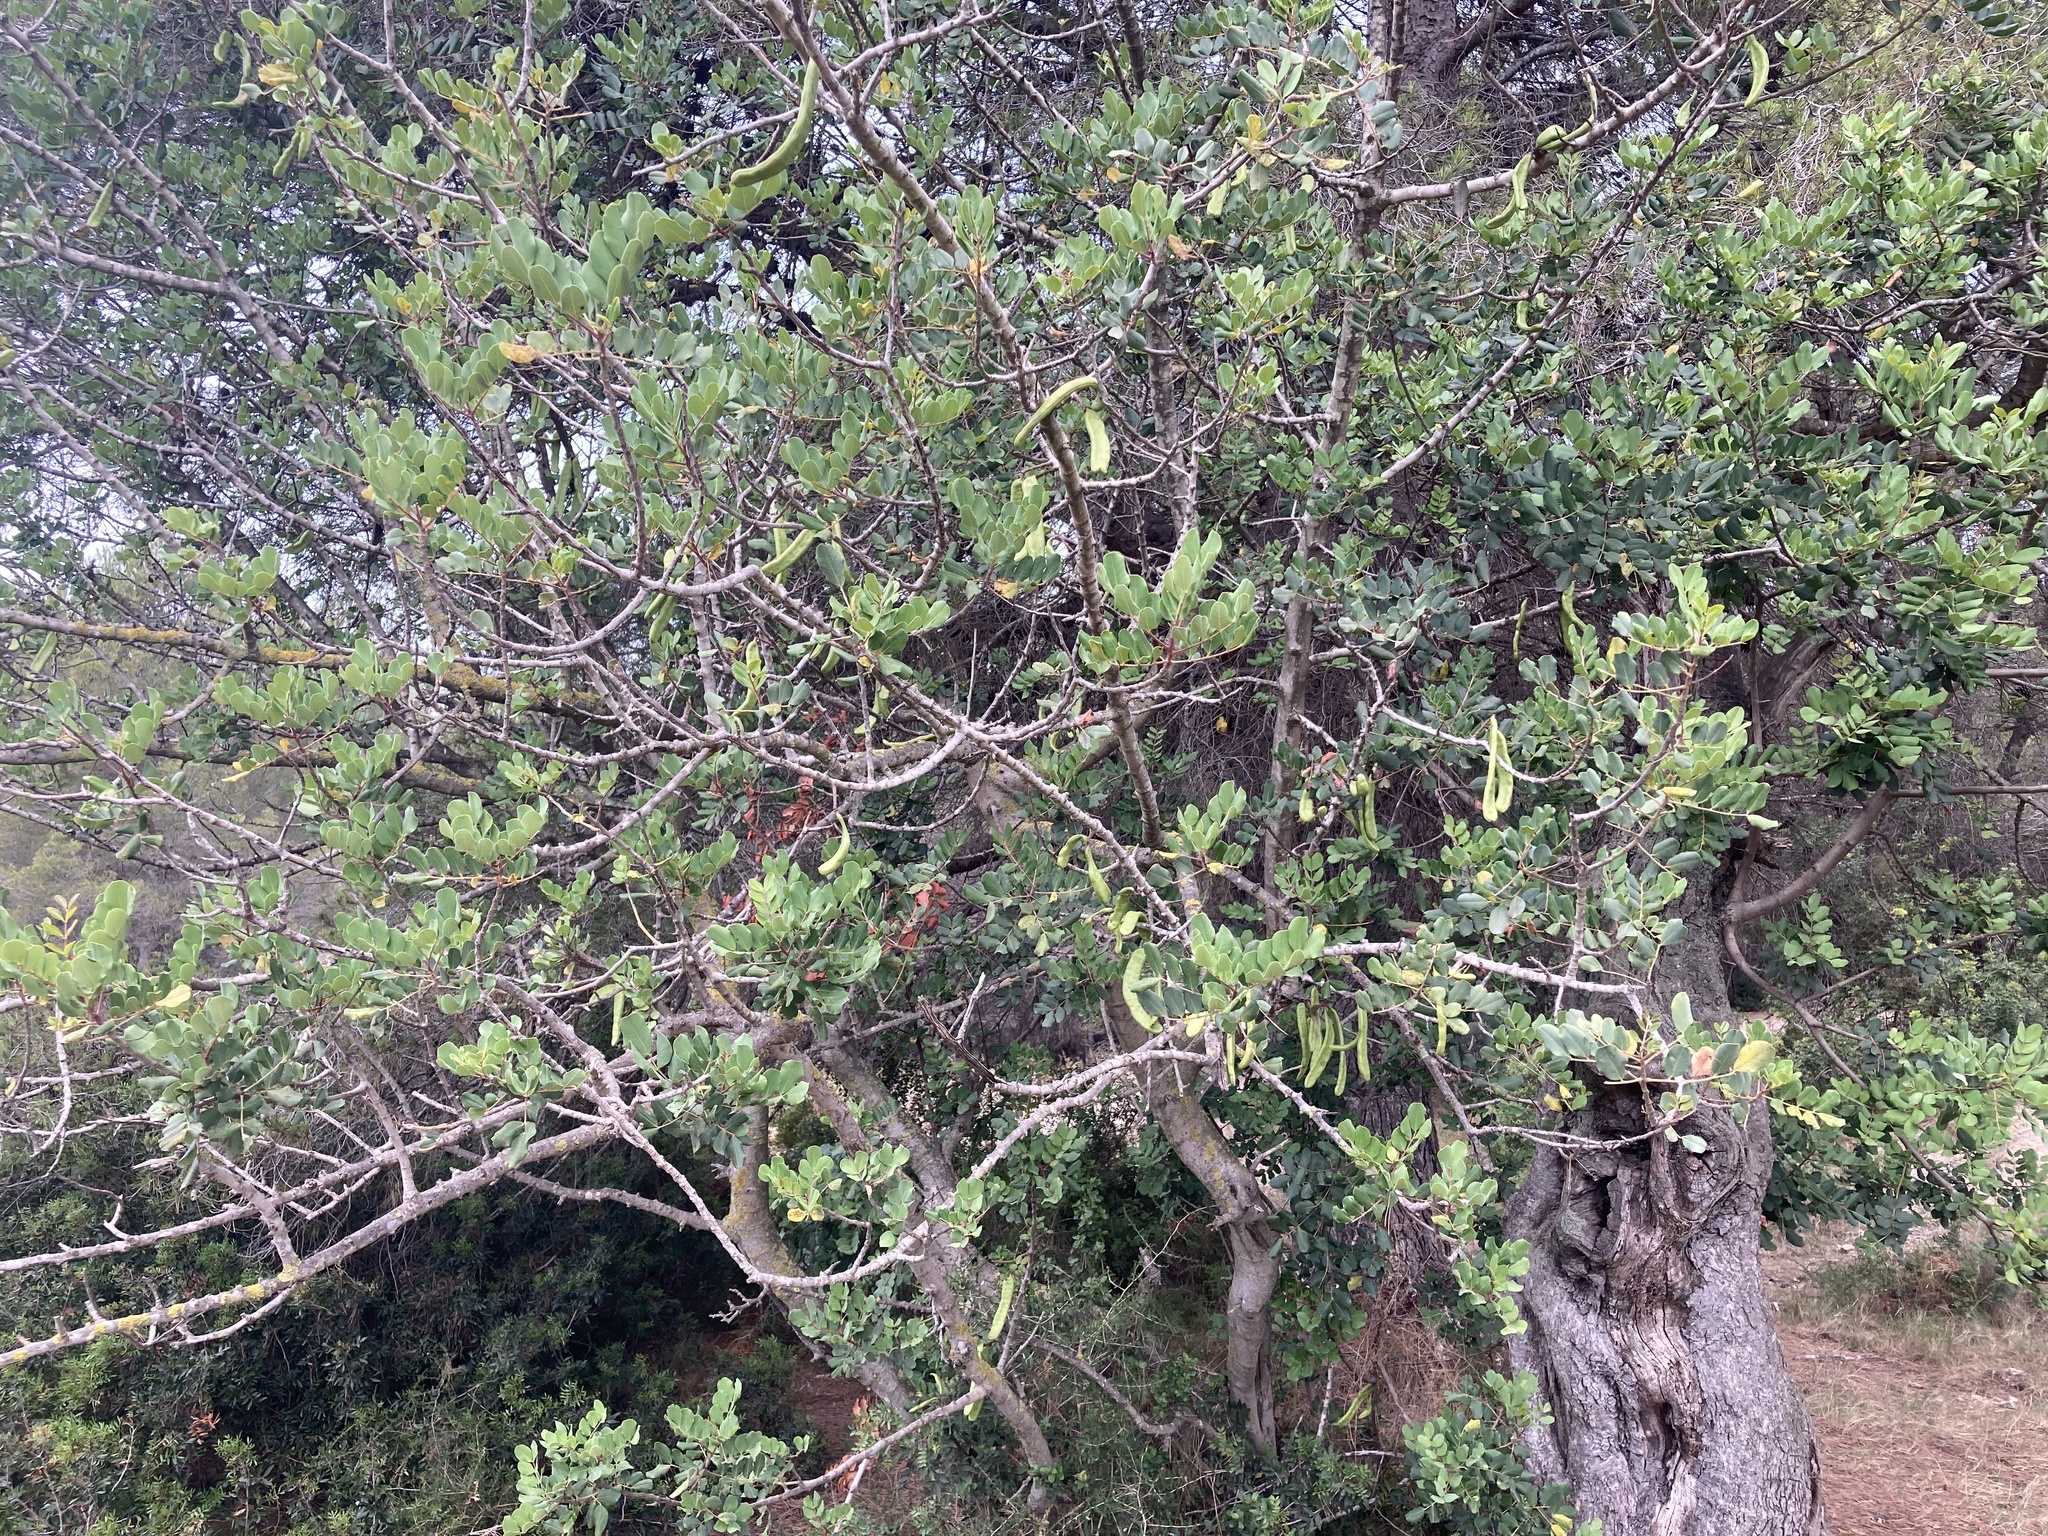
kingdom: Plantae
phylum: Tracheophyta
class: Magnoliopsida
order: Fabales
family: Fabaceae
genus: Ceratonia
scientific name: Ceratonia siliqua
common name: Carob
